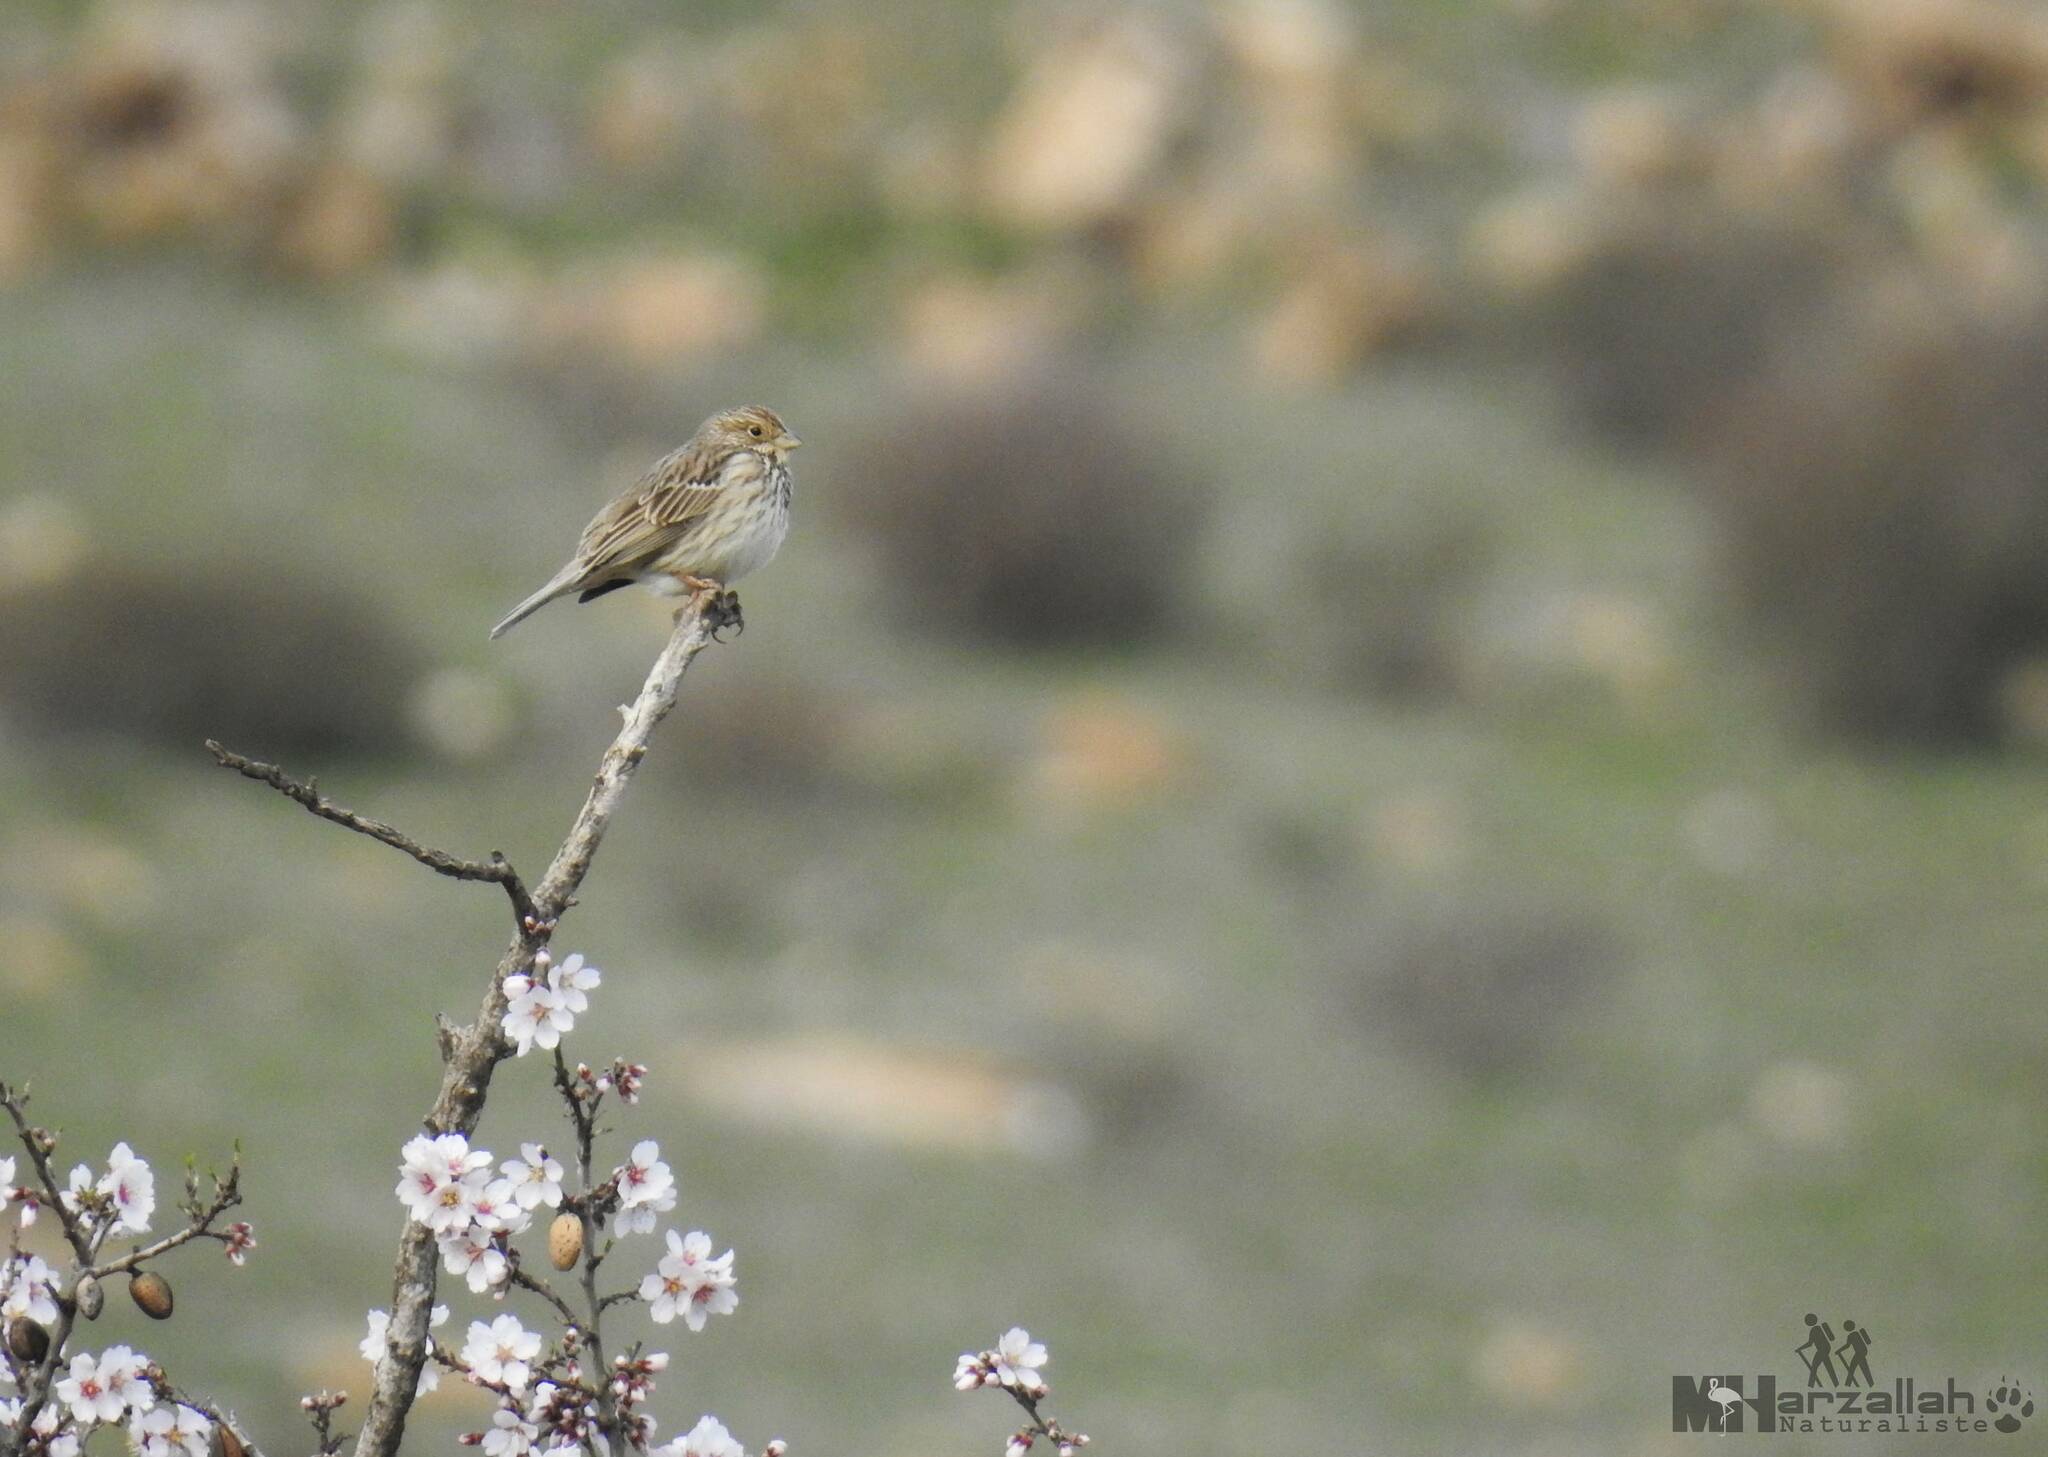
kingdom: Animalia
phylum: Chordata
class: Aves
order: Passeriformes
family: Emberizidae
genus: Emberiza
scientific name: Emberiza calandra
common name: Corn bunting
